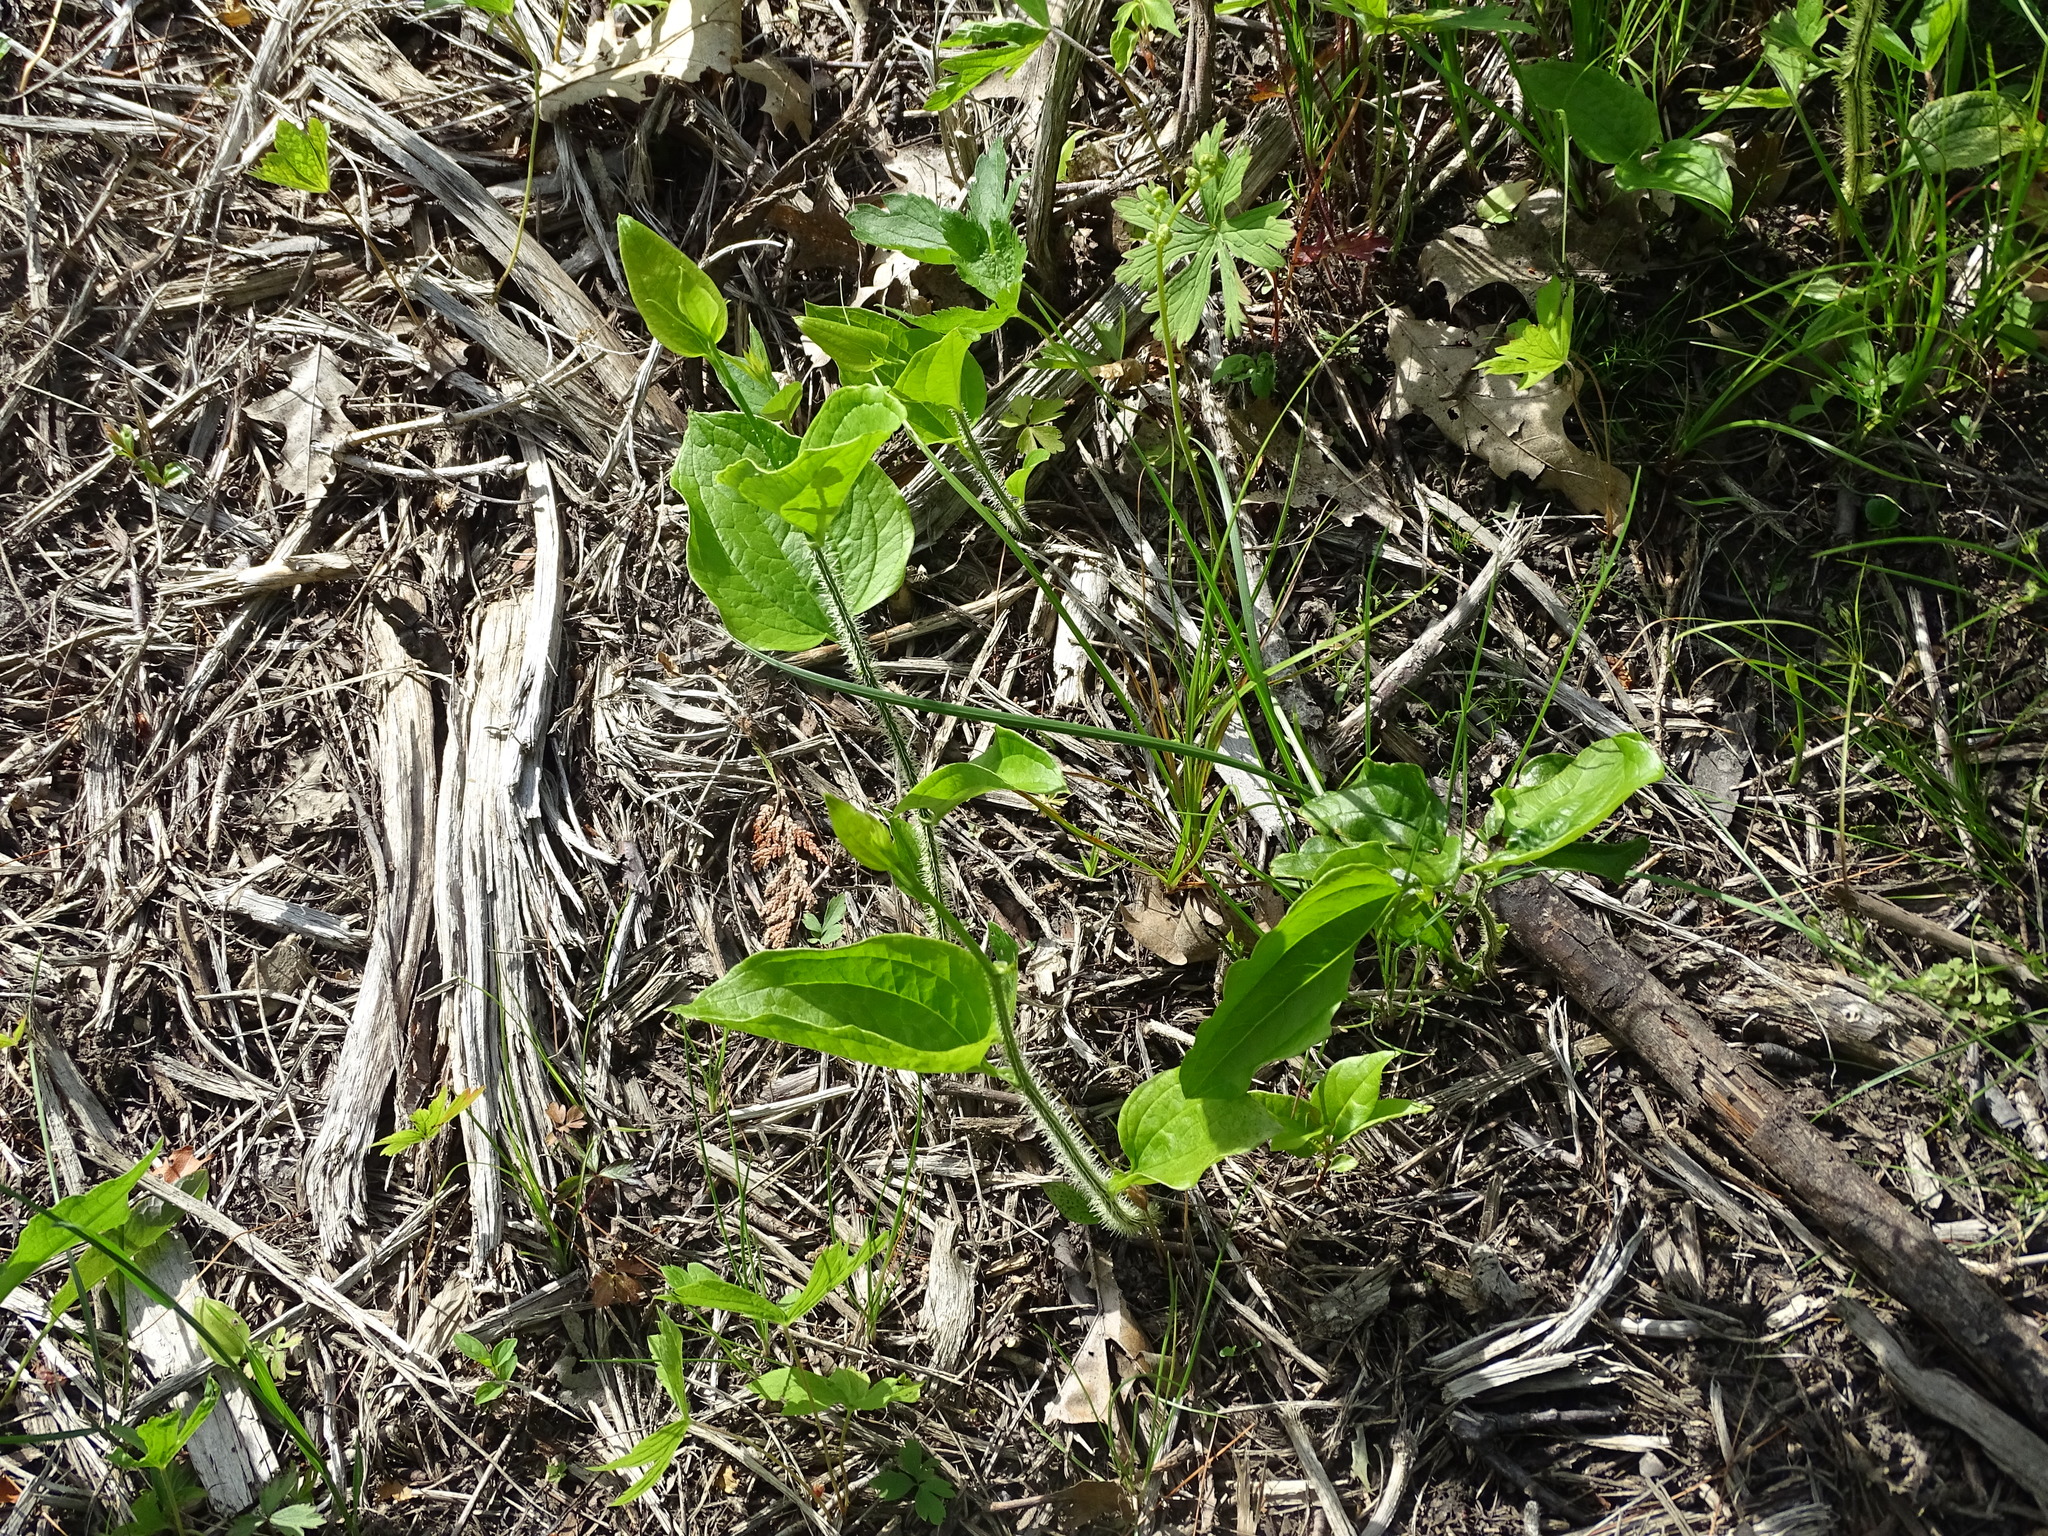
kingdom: Plantae
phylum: Tracheophyta
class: Liliopsida
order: Liliales
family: Smilacaceae
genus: Smilax
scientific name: Smilax tamnoides
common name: Hellfetter
